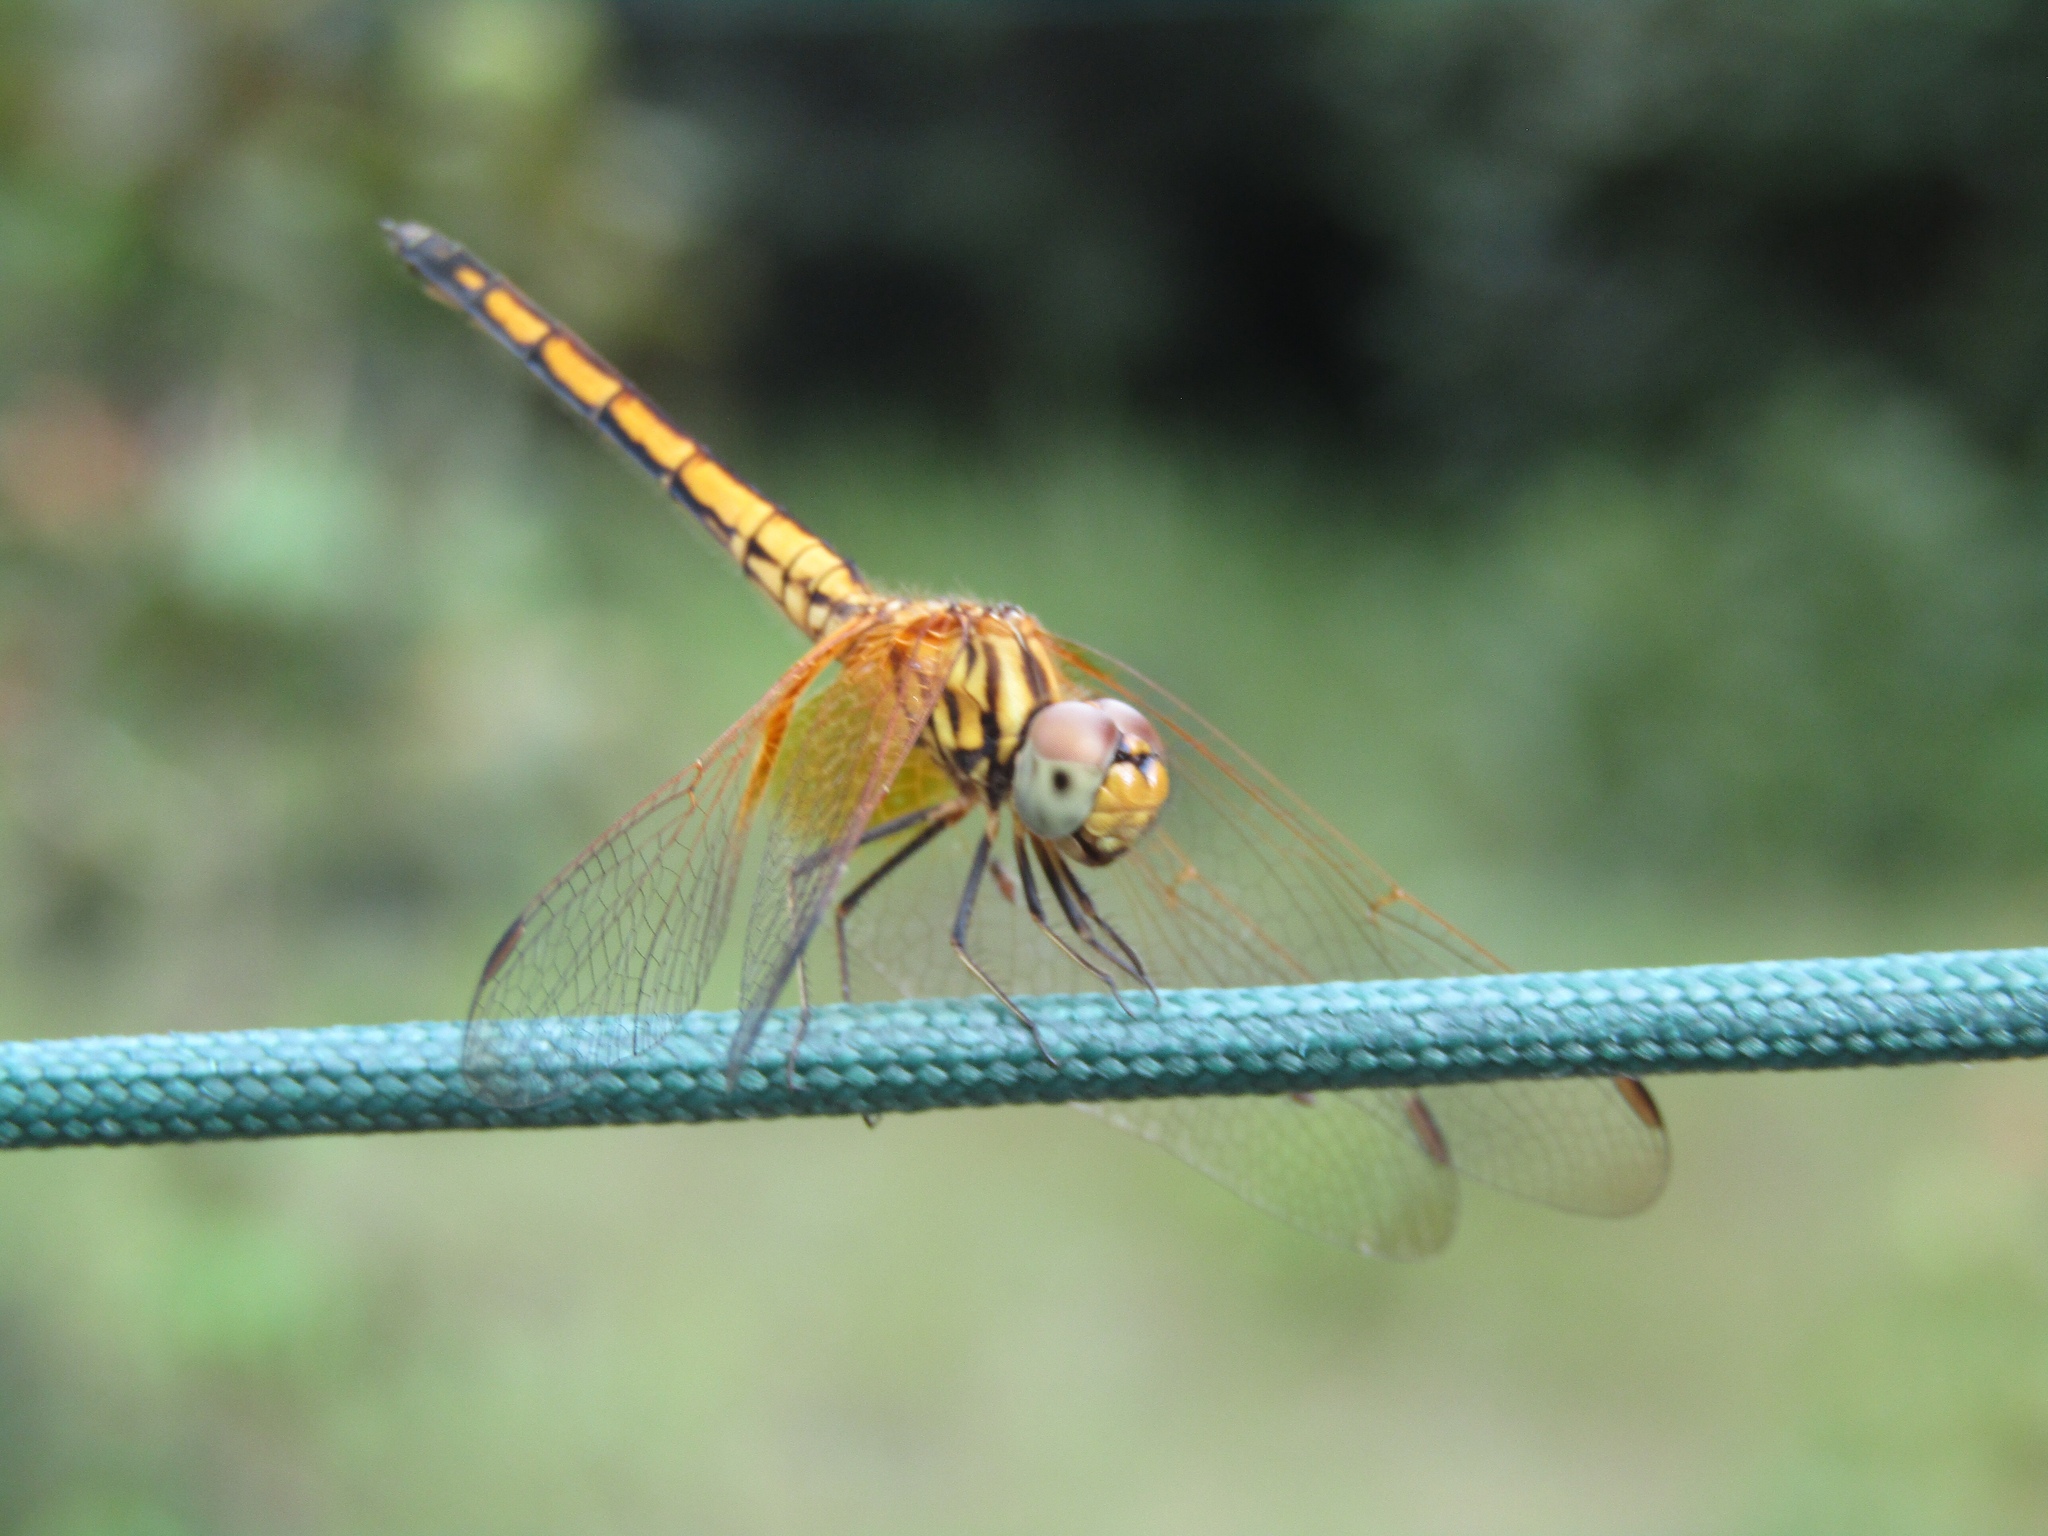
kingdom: Animalia
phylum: Arthropoda
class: Insecta
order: Odonata
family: Libellulidae
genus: Trithemis
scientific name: Trithemis aurora
